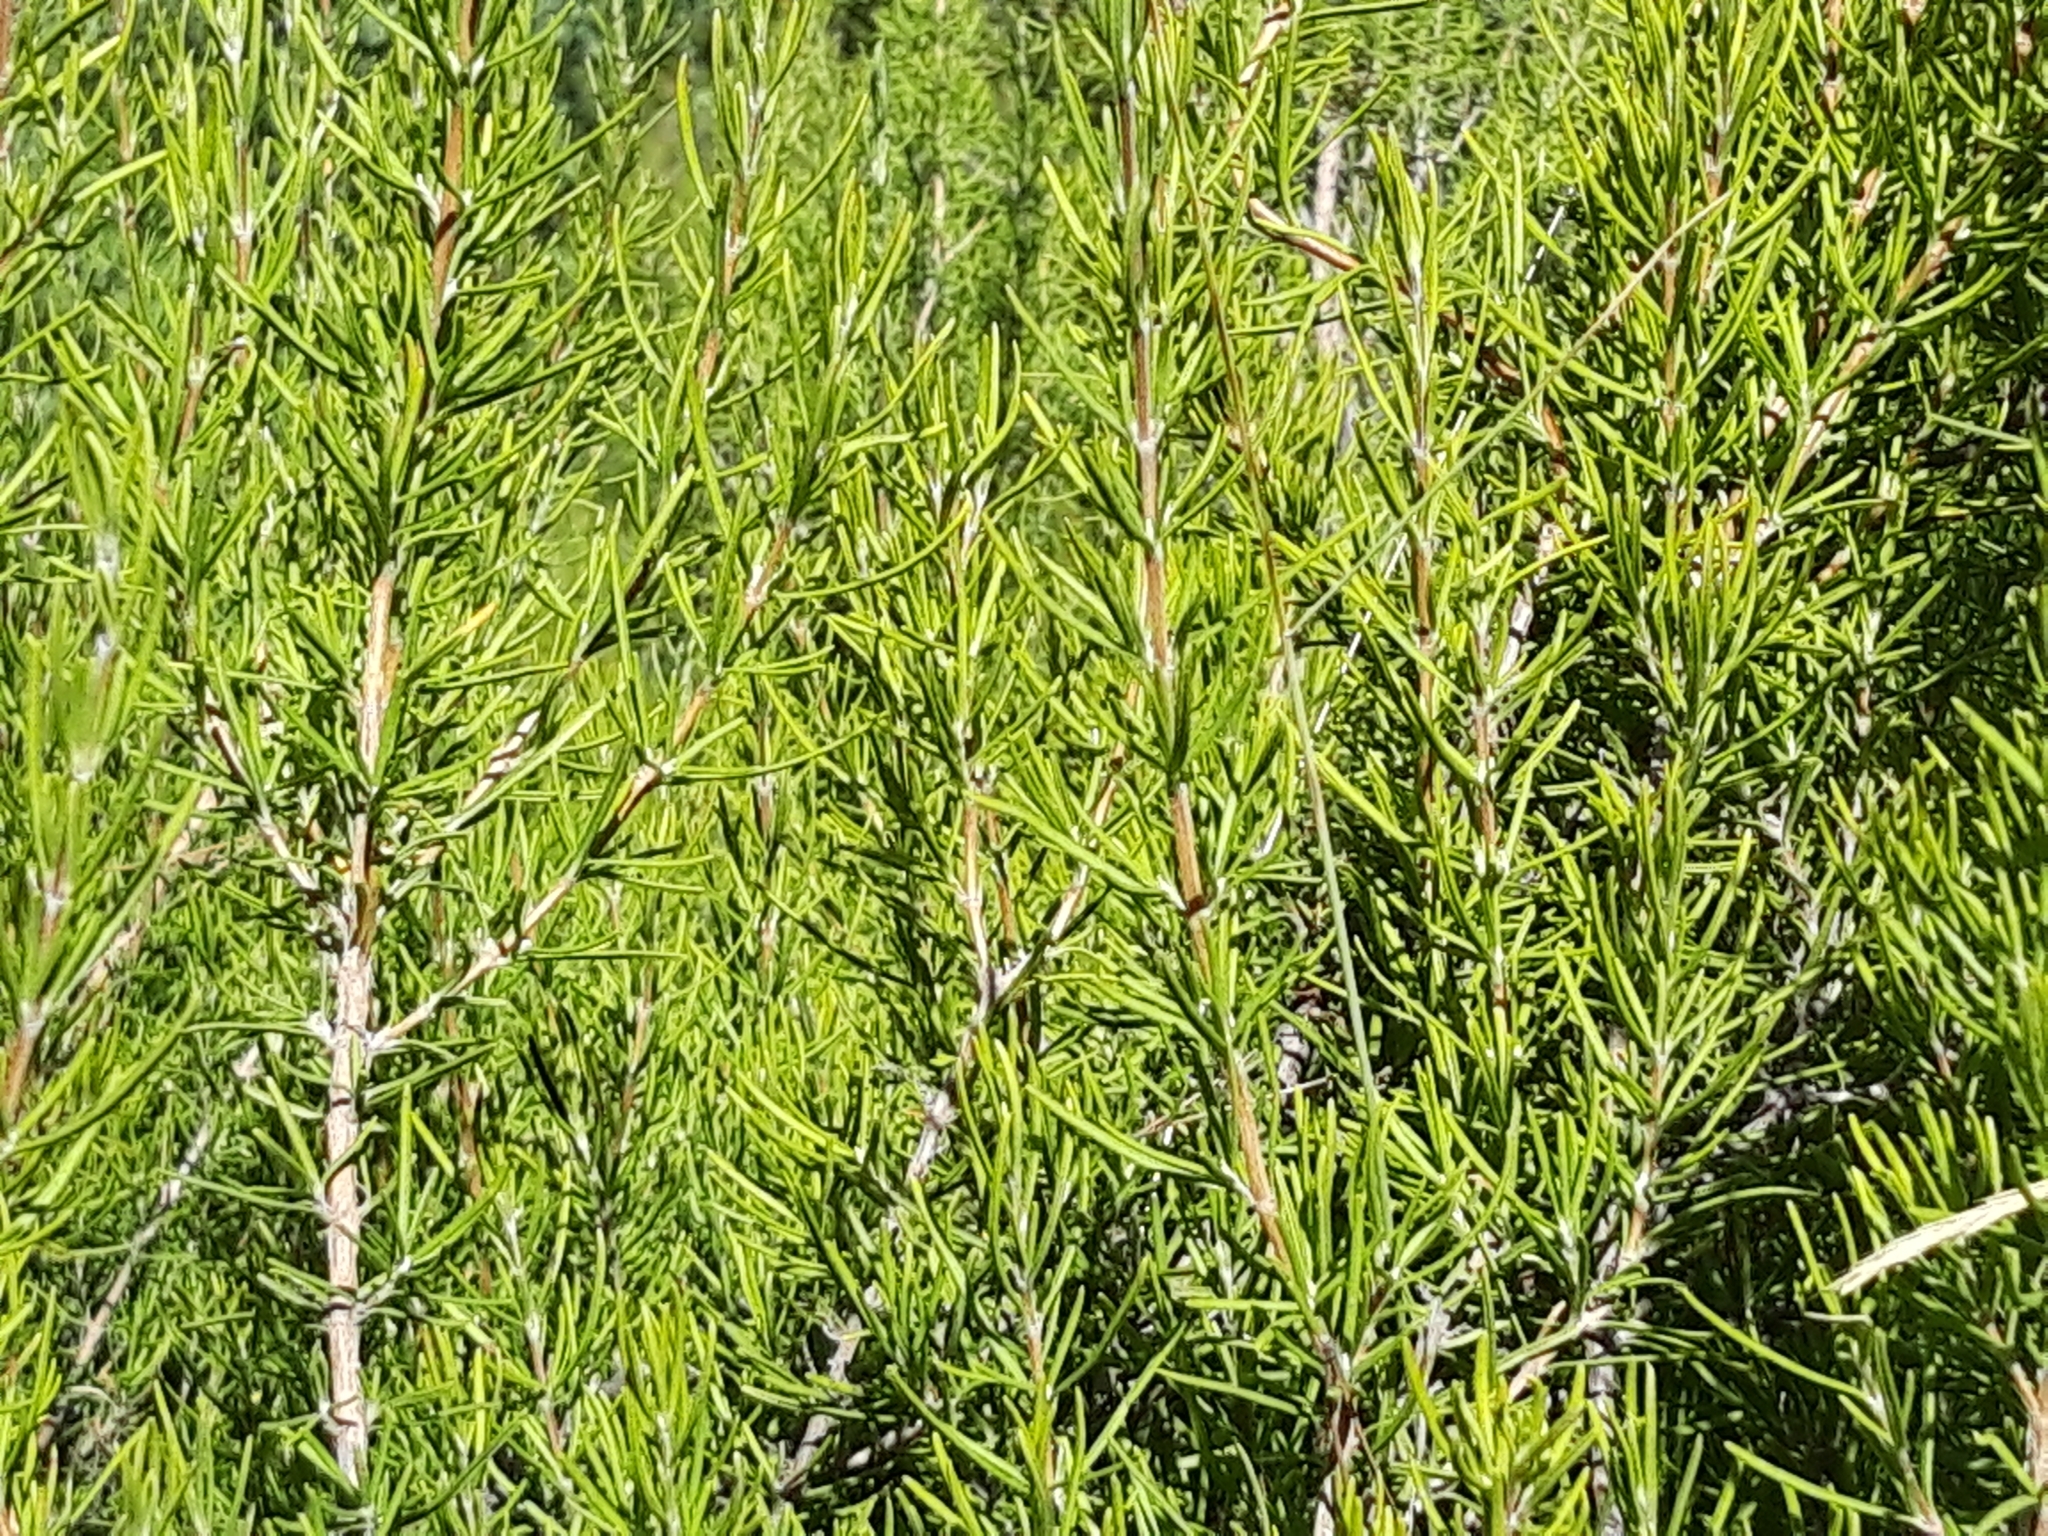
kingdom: Plantae
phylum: Tracheophyta
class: Magnoliopsida
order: Lamiales
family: Lamiaceae
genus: Salvia
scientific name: Salvia rosmarinus
